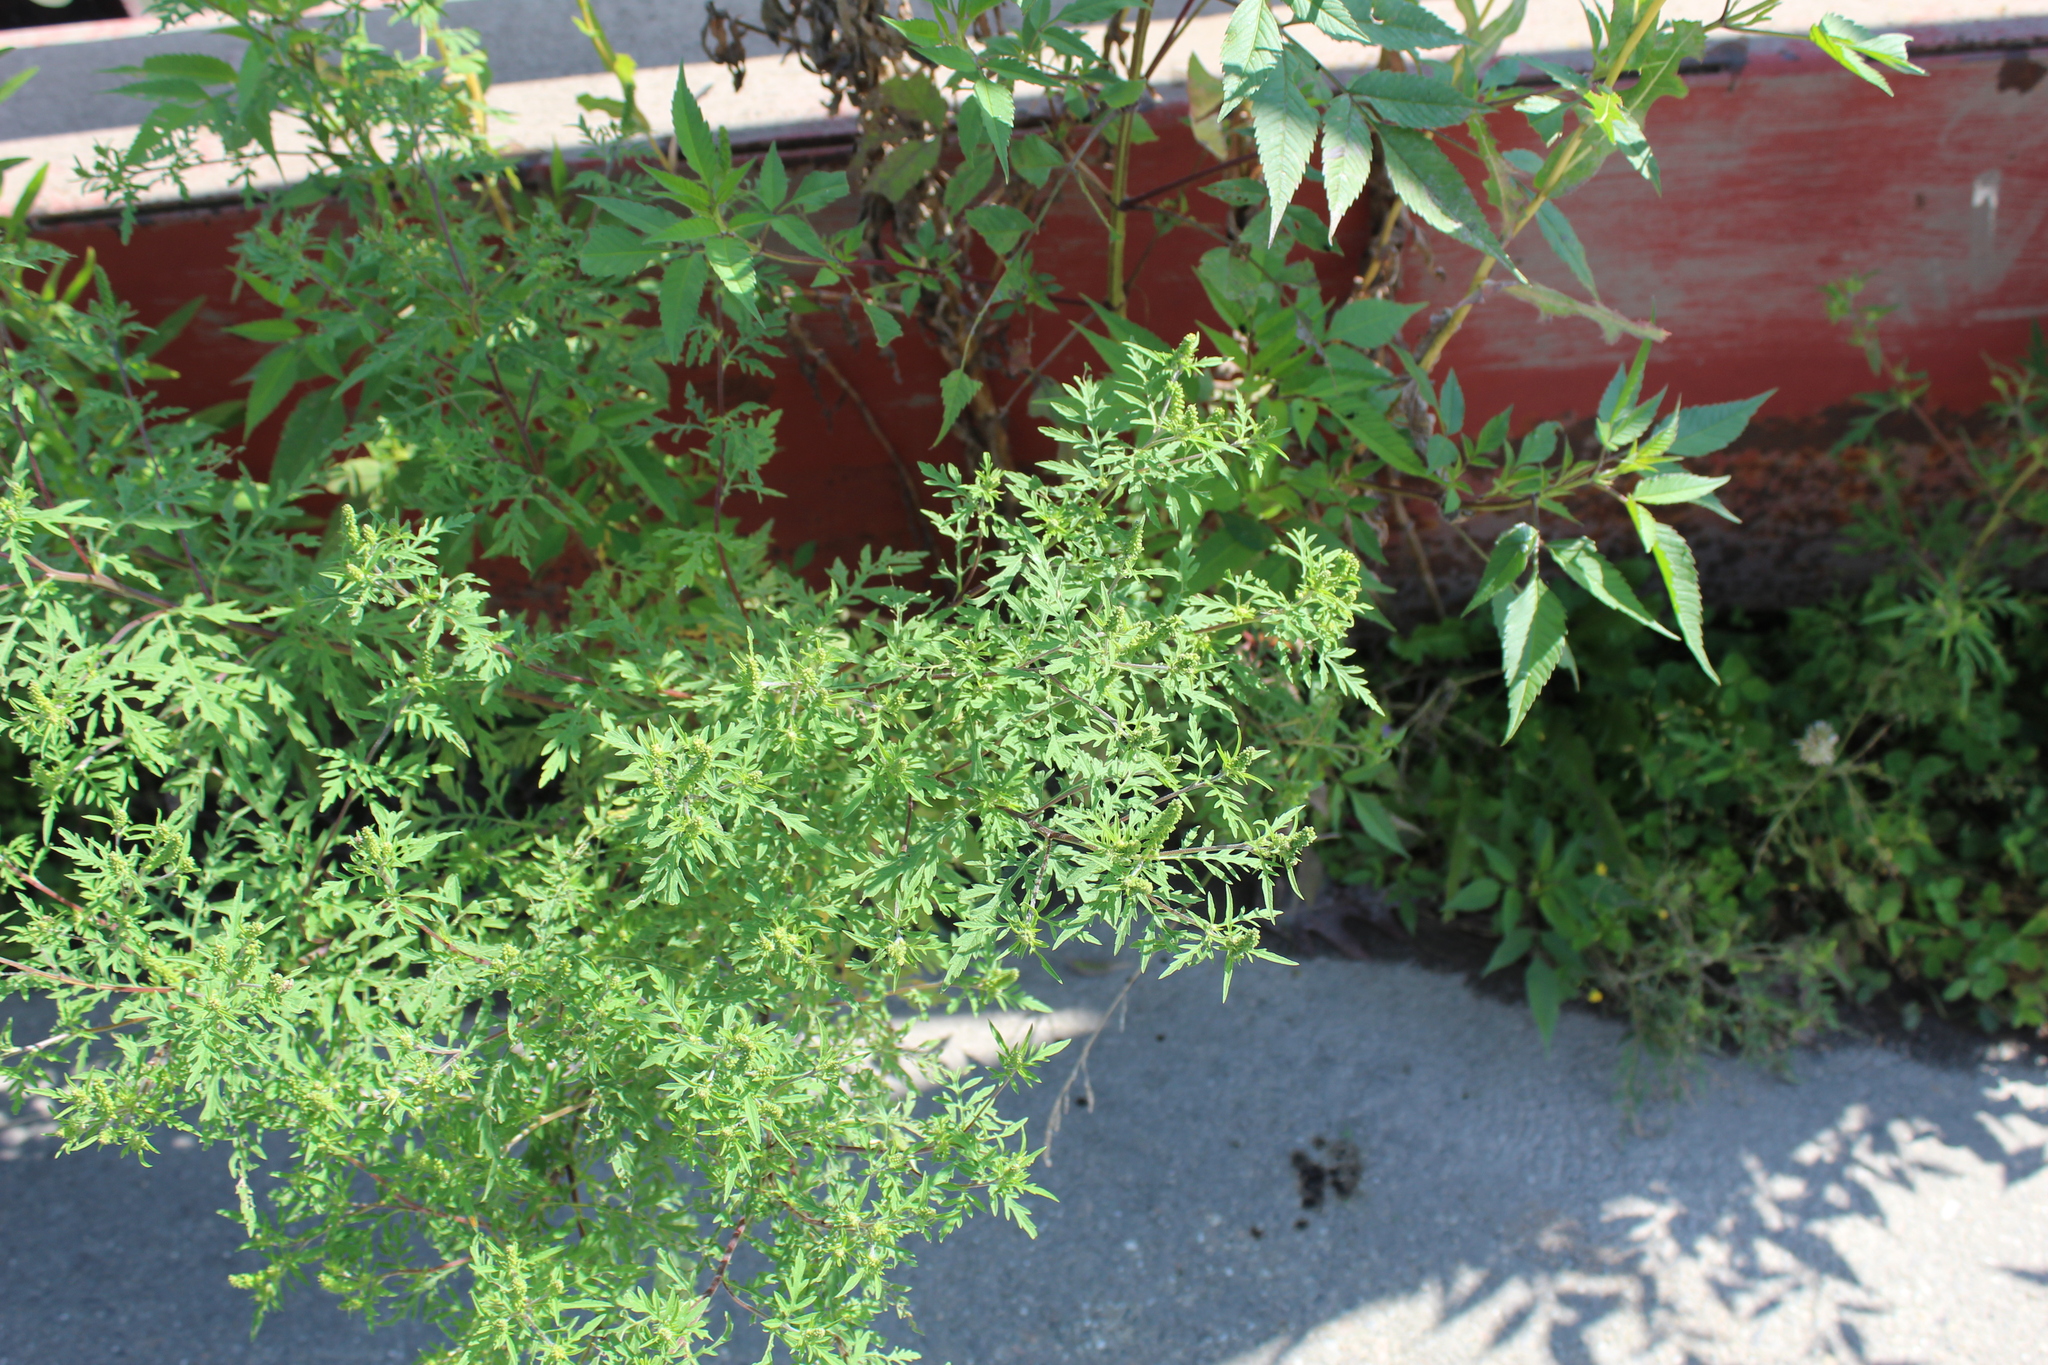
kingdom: Plantae
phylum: Tracheophyta
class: Magnoliopsida
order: Asterales
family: Asteraceae
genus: Ambrosia
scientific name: Ambrosia artemisiifolia
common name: Annual ragweed
